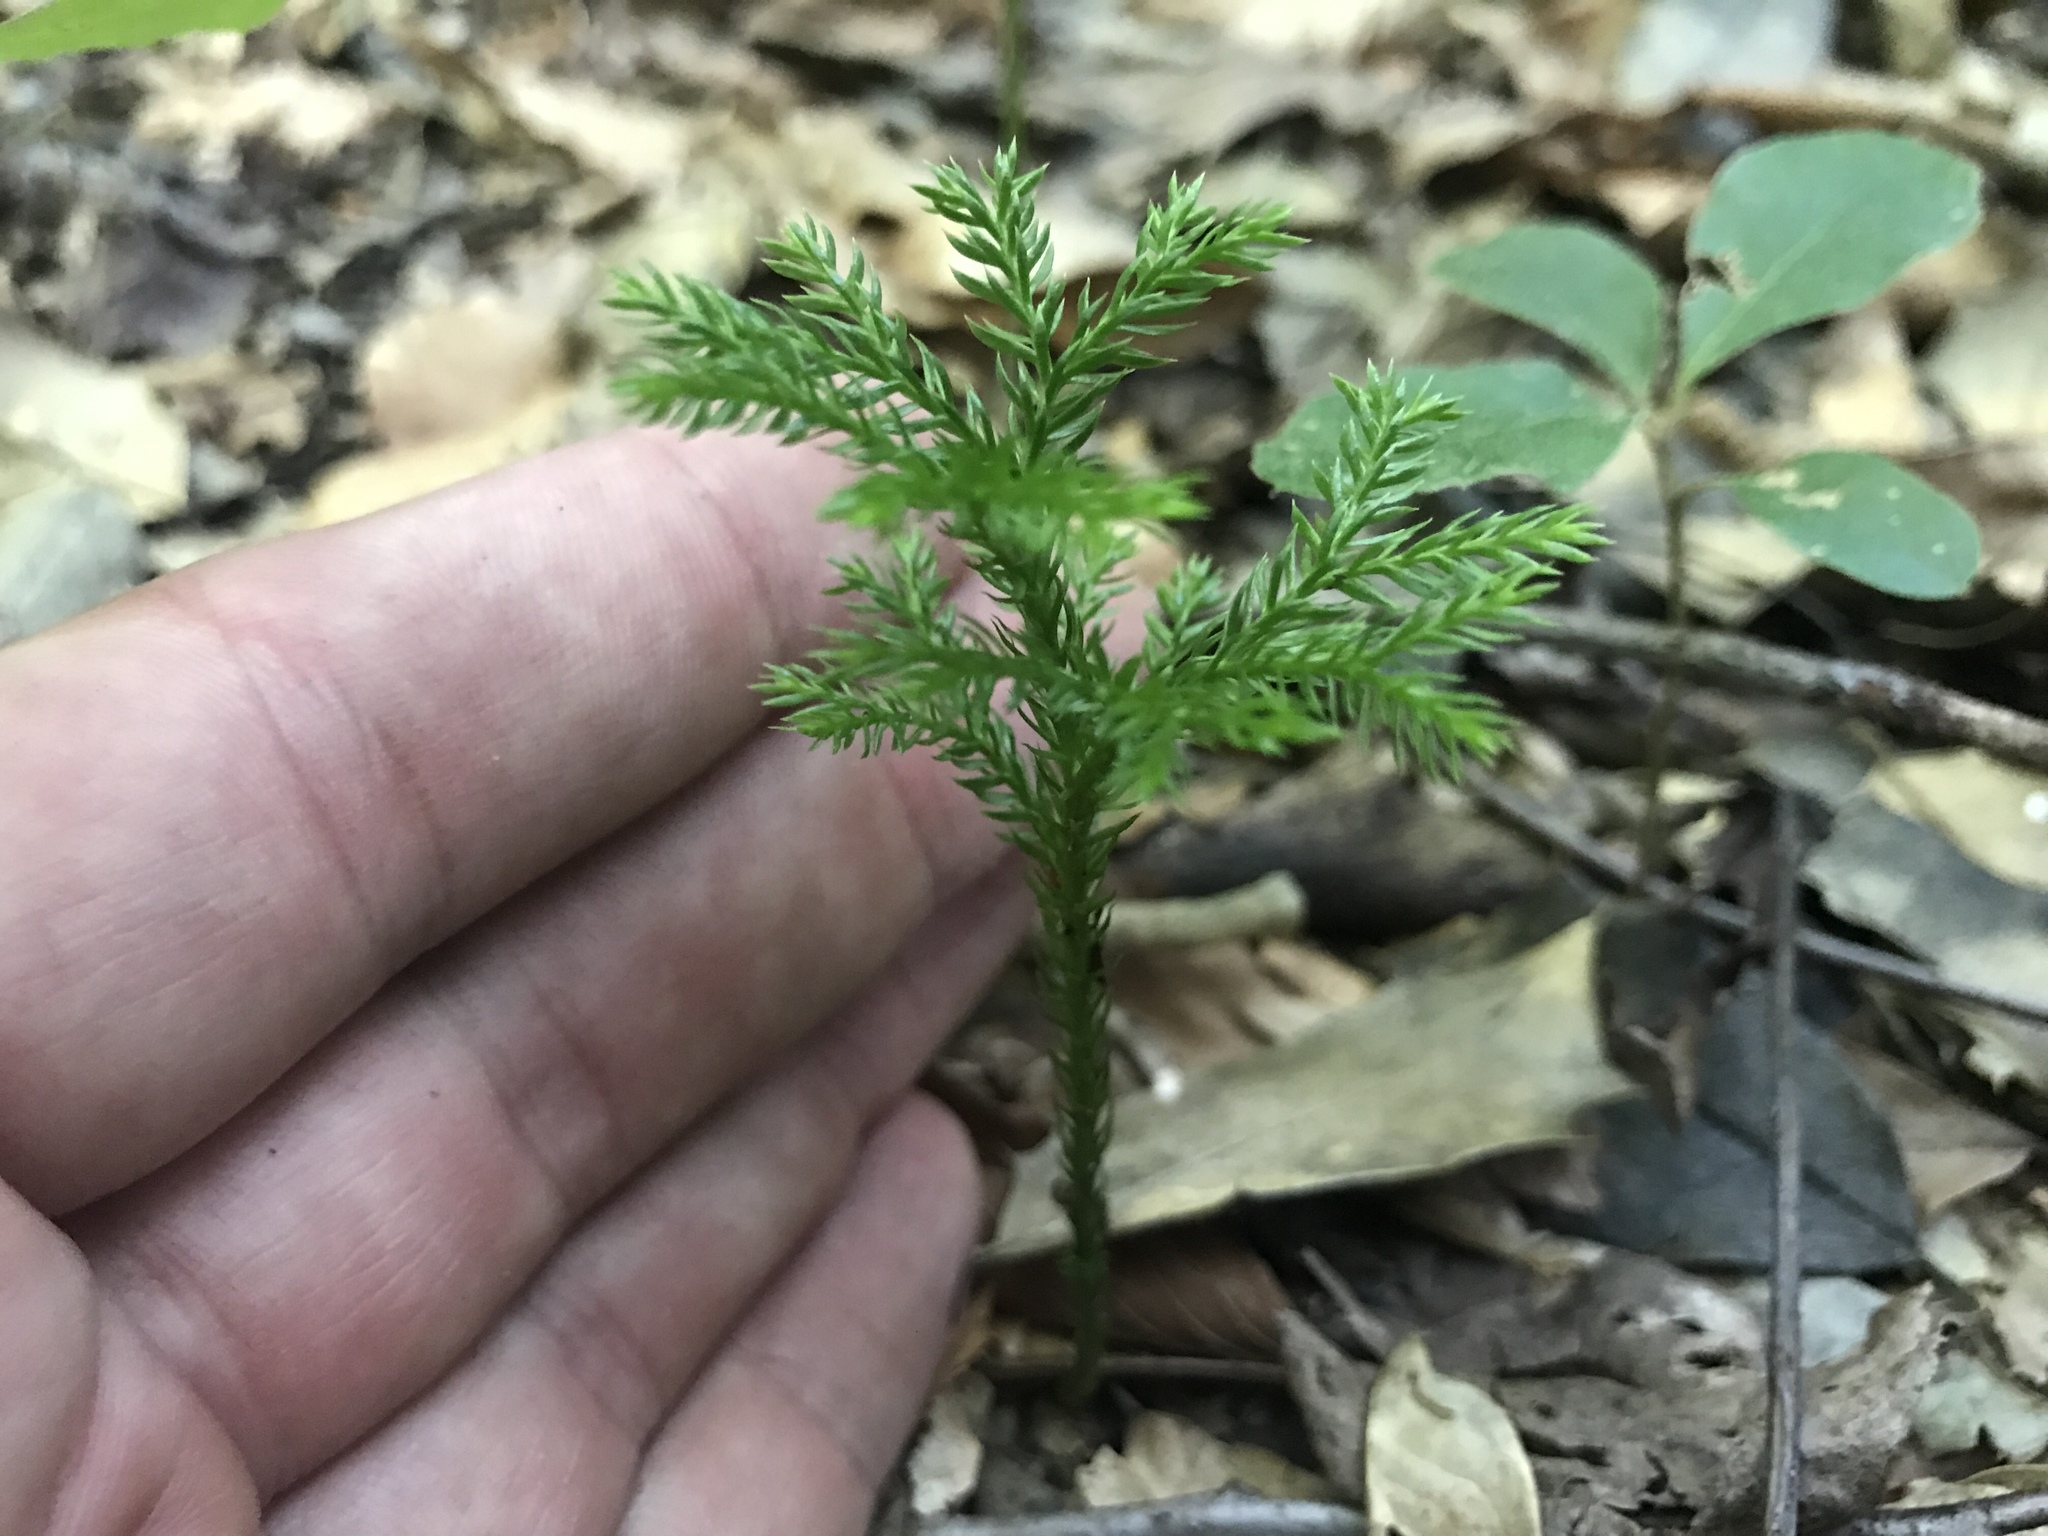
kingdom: Plantae
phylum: Tracheophyta
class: Lycopodiopsida
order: Lycopodiales
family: Lycopodiaceae
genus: Dendrolycopodium
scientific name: Dendrolycopodium obscurum
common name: Common ground-pine
